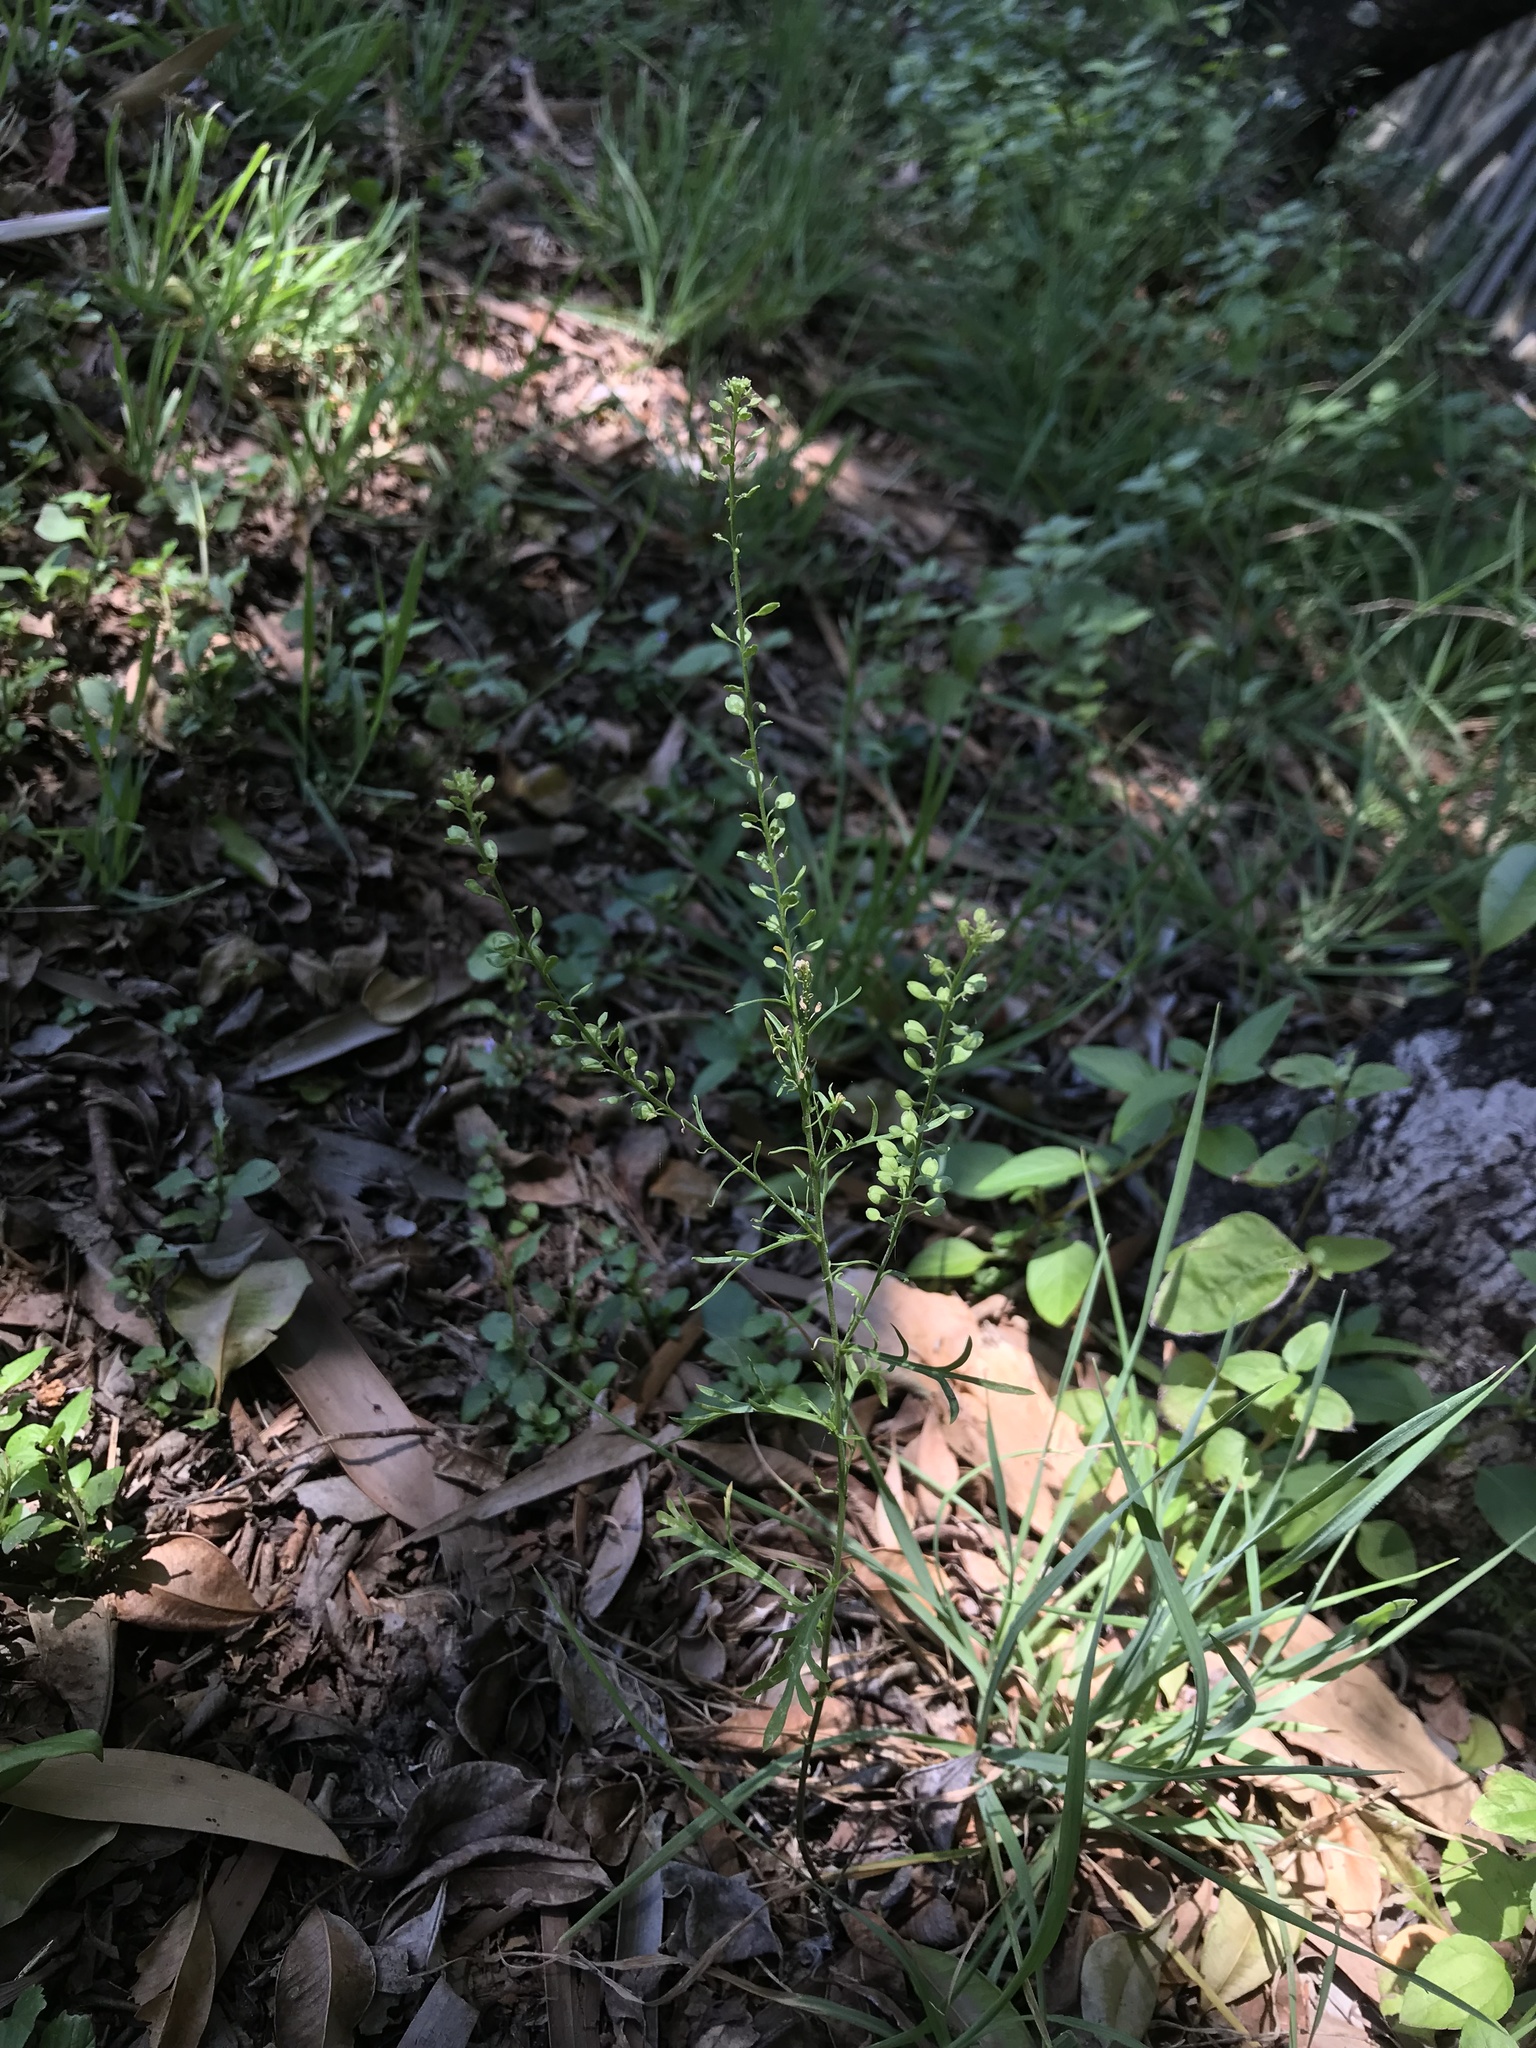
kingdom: Plantae
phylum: Tracheophyta
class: Magnoliopsida
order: Brassicales
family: Brassicaceae
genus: Lepidium
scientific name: Lepidium bonariense
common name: Argentine pepperwort
